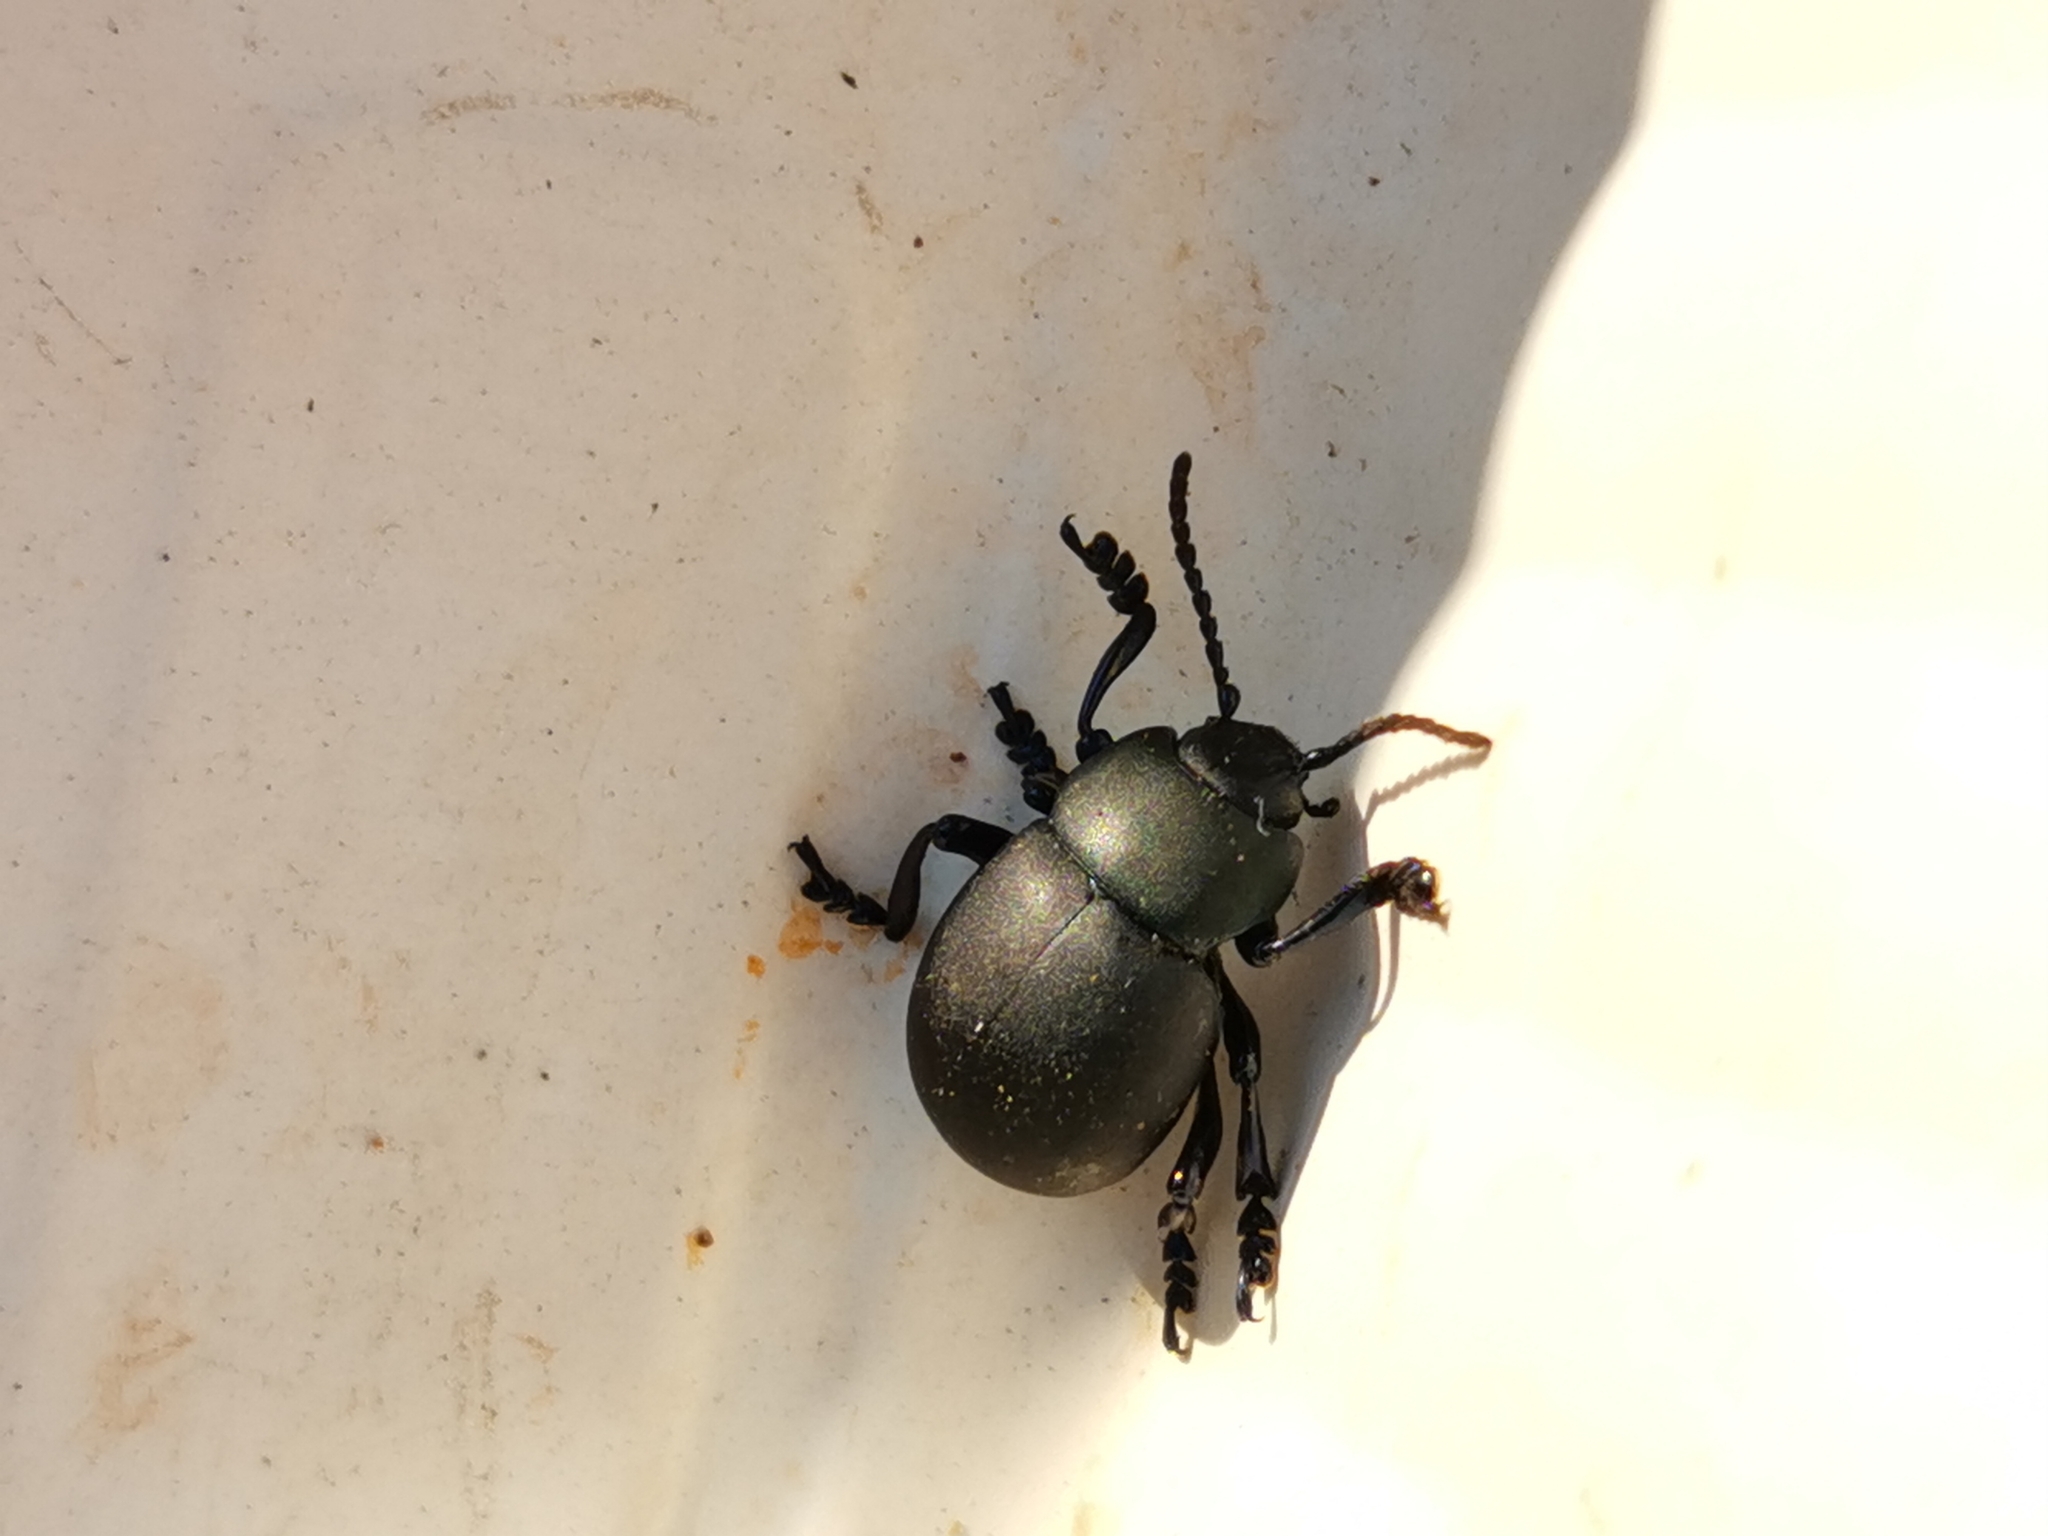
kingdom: Animalia
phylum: Arthropoda
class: Insecta
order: Coleoptera
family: Chrysomelidae
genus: Timarcha
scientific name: Timarcha tenebricosa
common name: Bloody-nosed beetle
